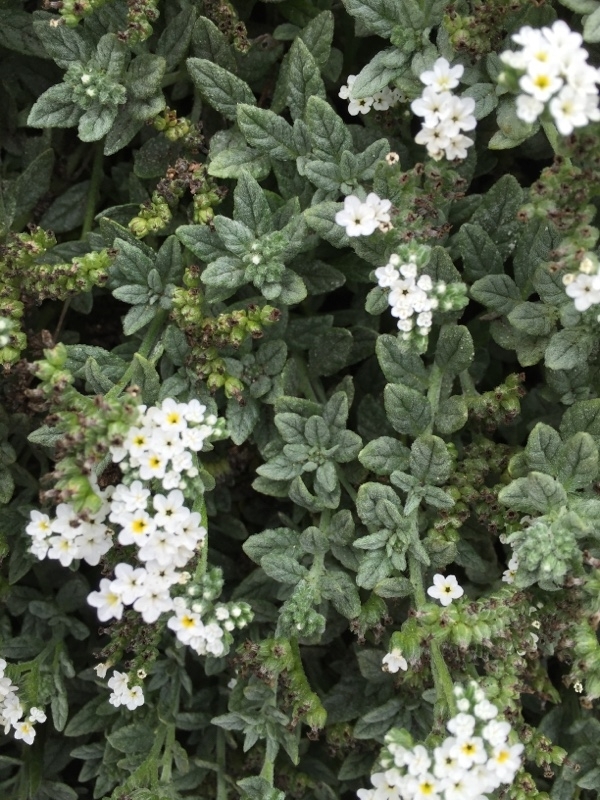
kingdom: Plantae
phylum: Tracheophyta
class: Magnoliopsida
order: Boraginales
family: Heliotropiaceae
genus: Heliotropium
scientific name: Heliotropium ramosissimum
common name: Wavy heliotrope
